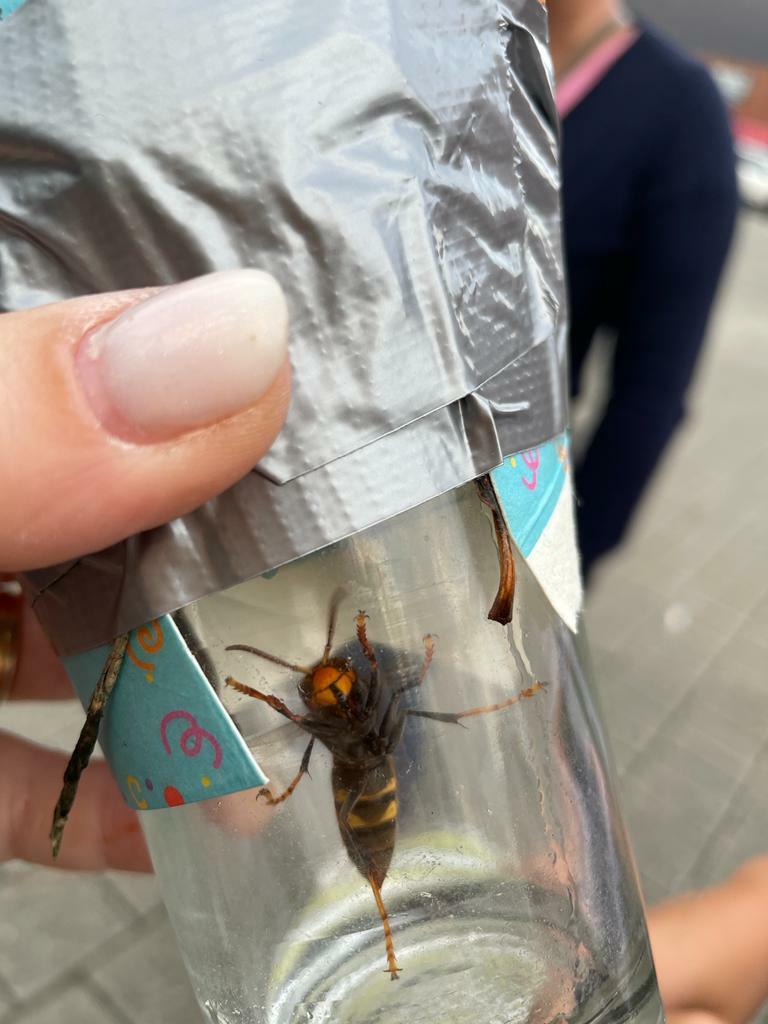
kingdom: Animalia
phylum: Arthropoda
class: Insecta
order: Hymenoptera
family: Vespidae
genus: Vespa
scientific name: Vespa velutina
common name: Asian hornet
